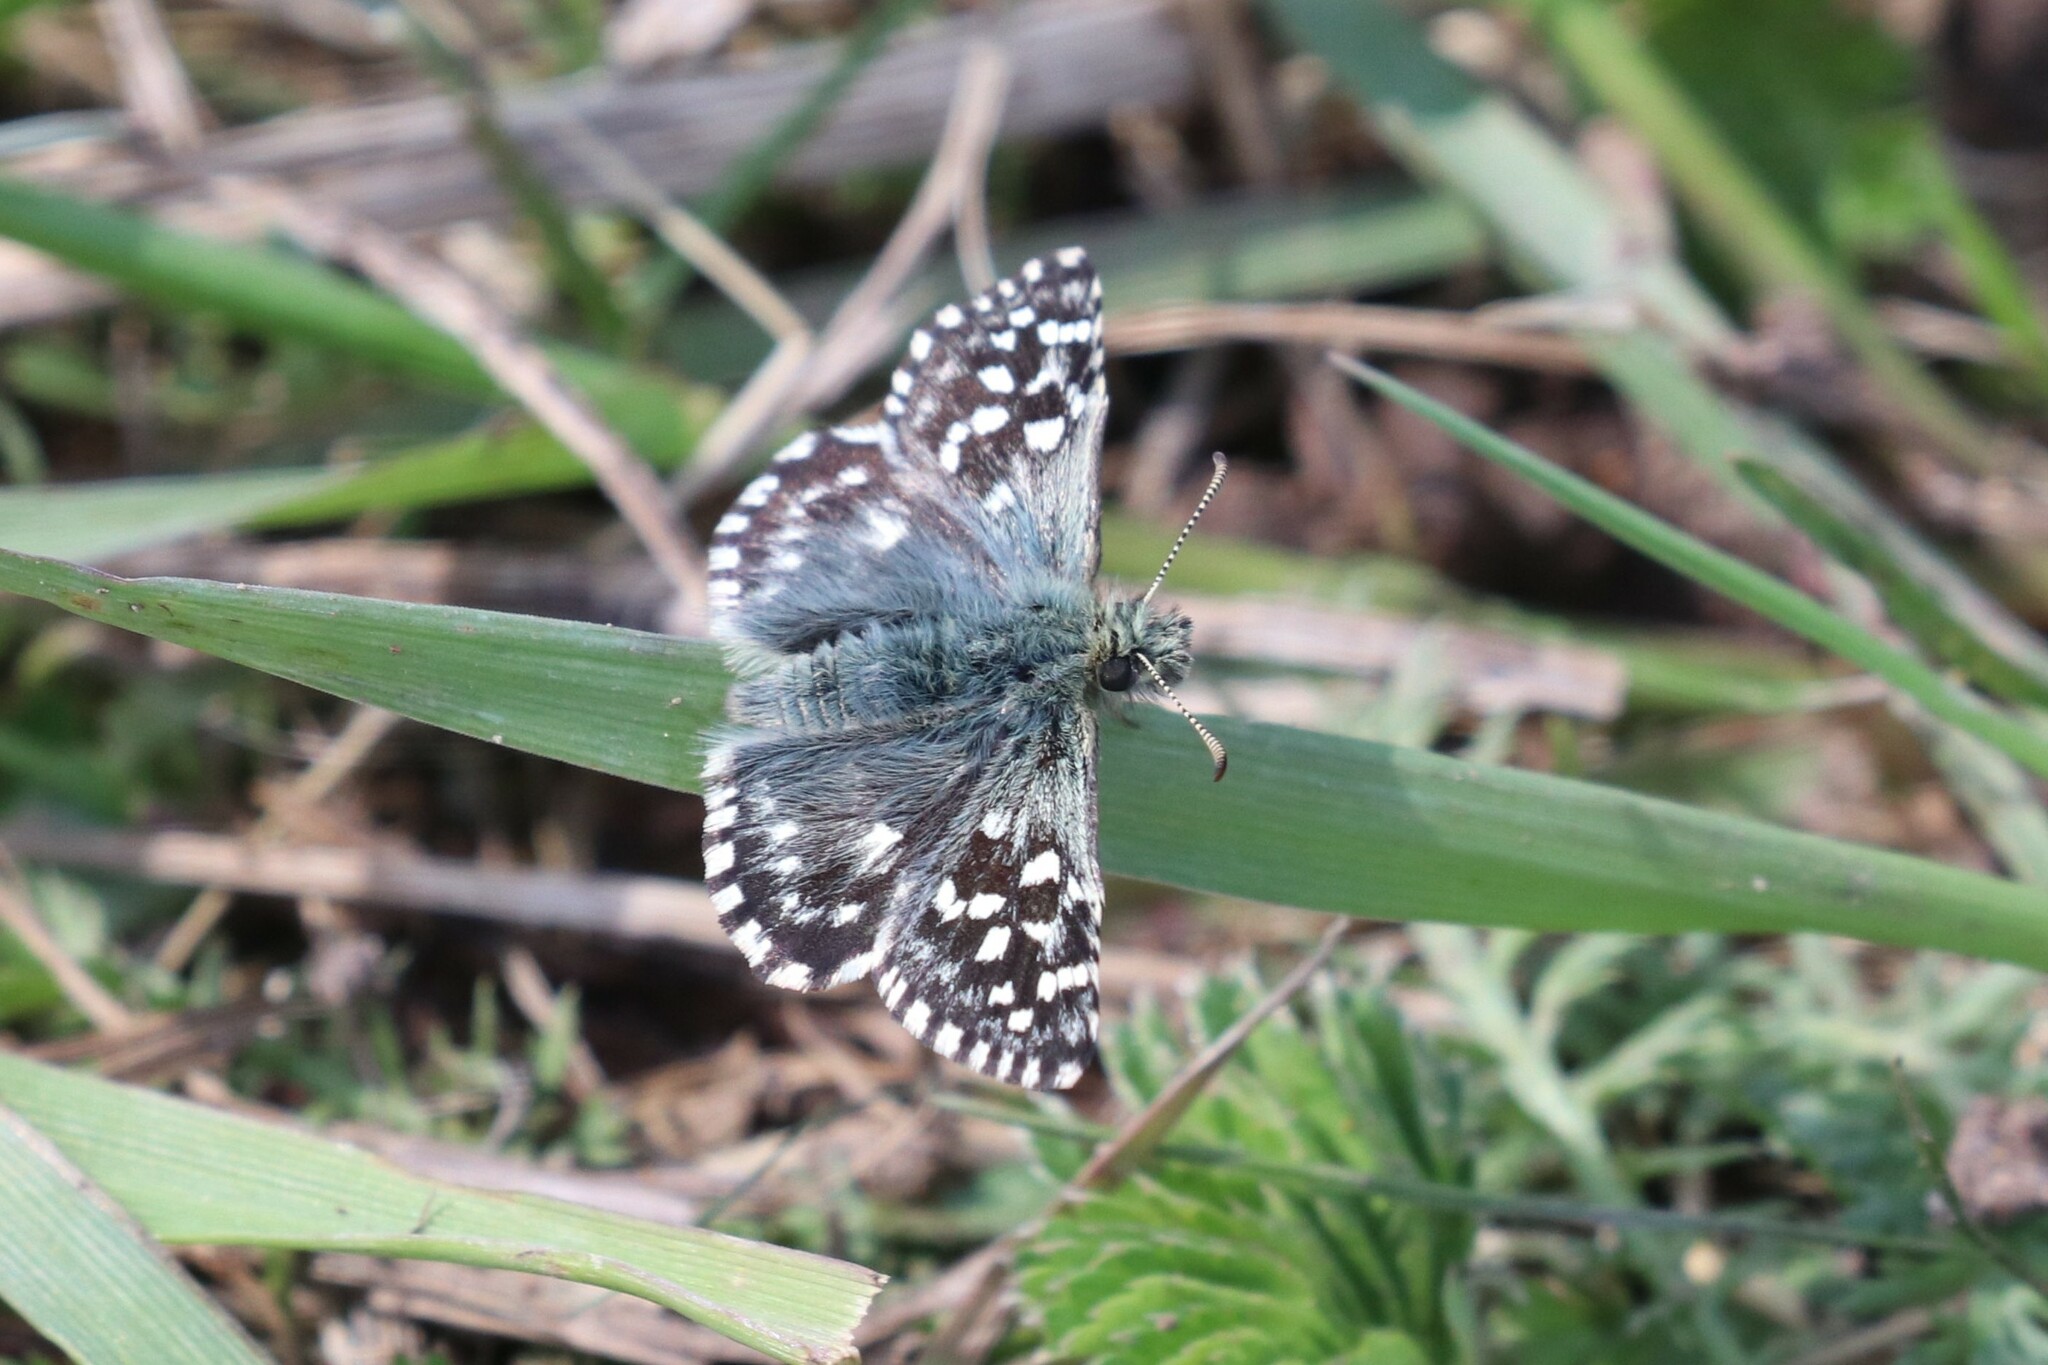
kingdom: Animalia
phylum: Arthropoda
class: Insecta
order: Lepidoptera
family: Hesperiidae
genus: Pyrgus
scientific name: Pyrgus malvae
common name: Grizzled skipper
